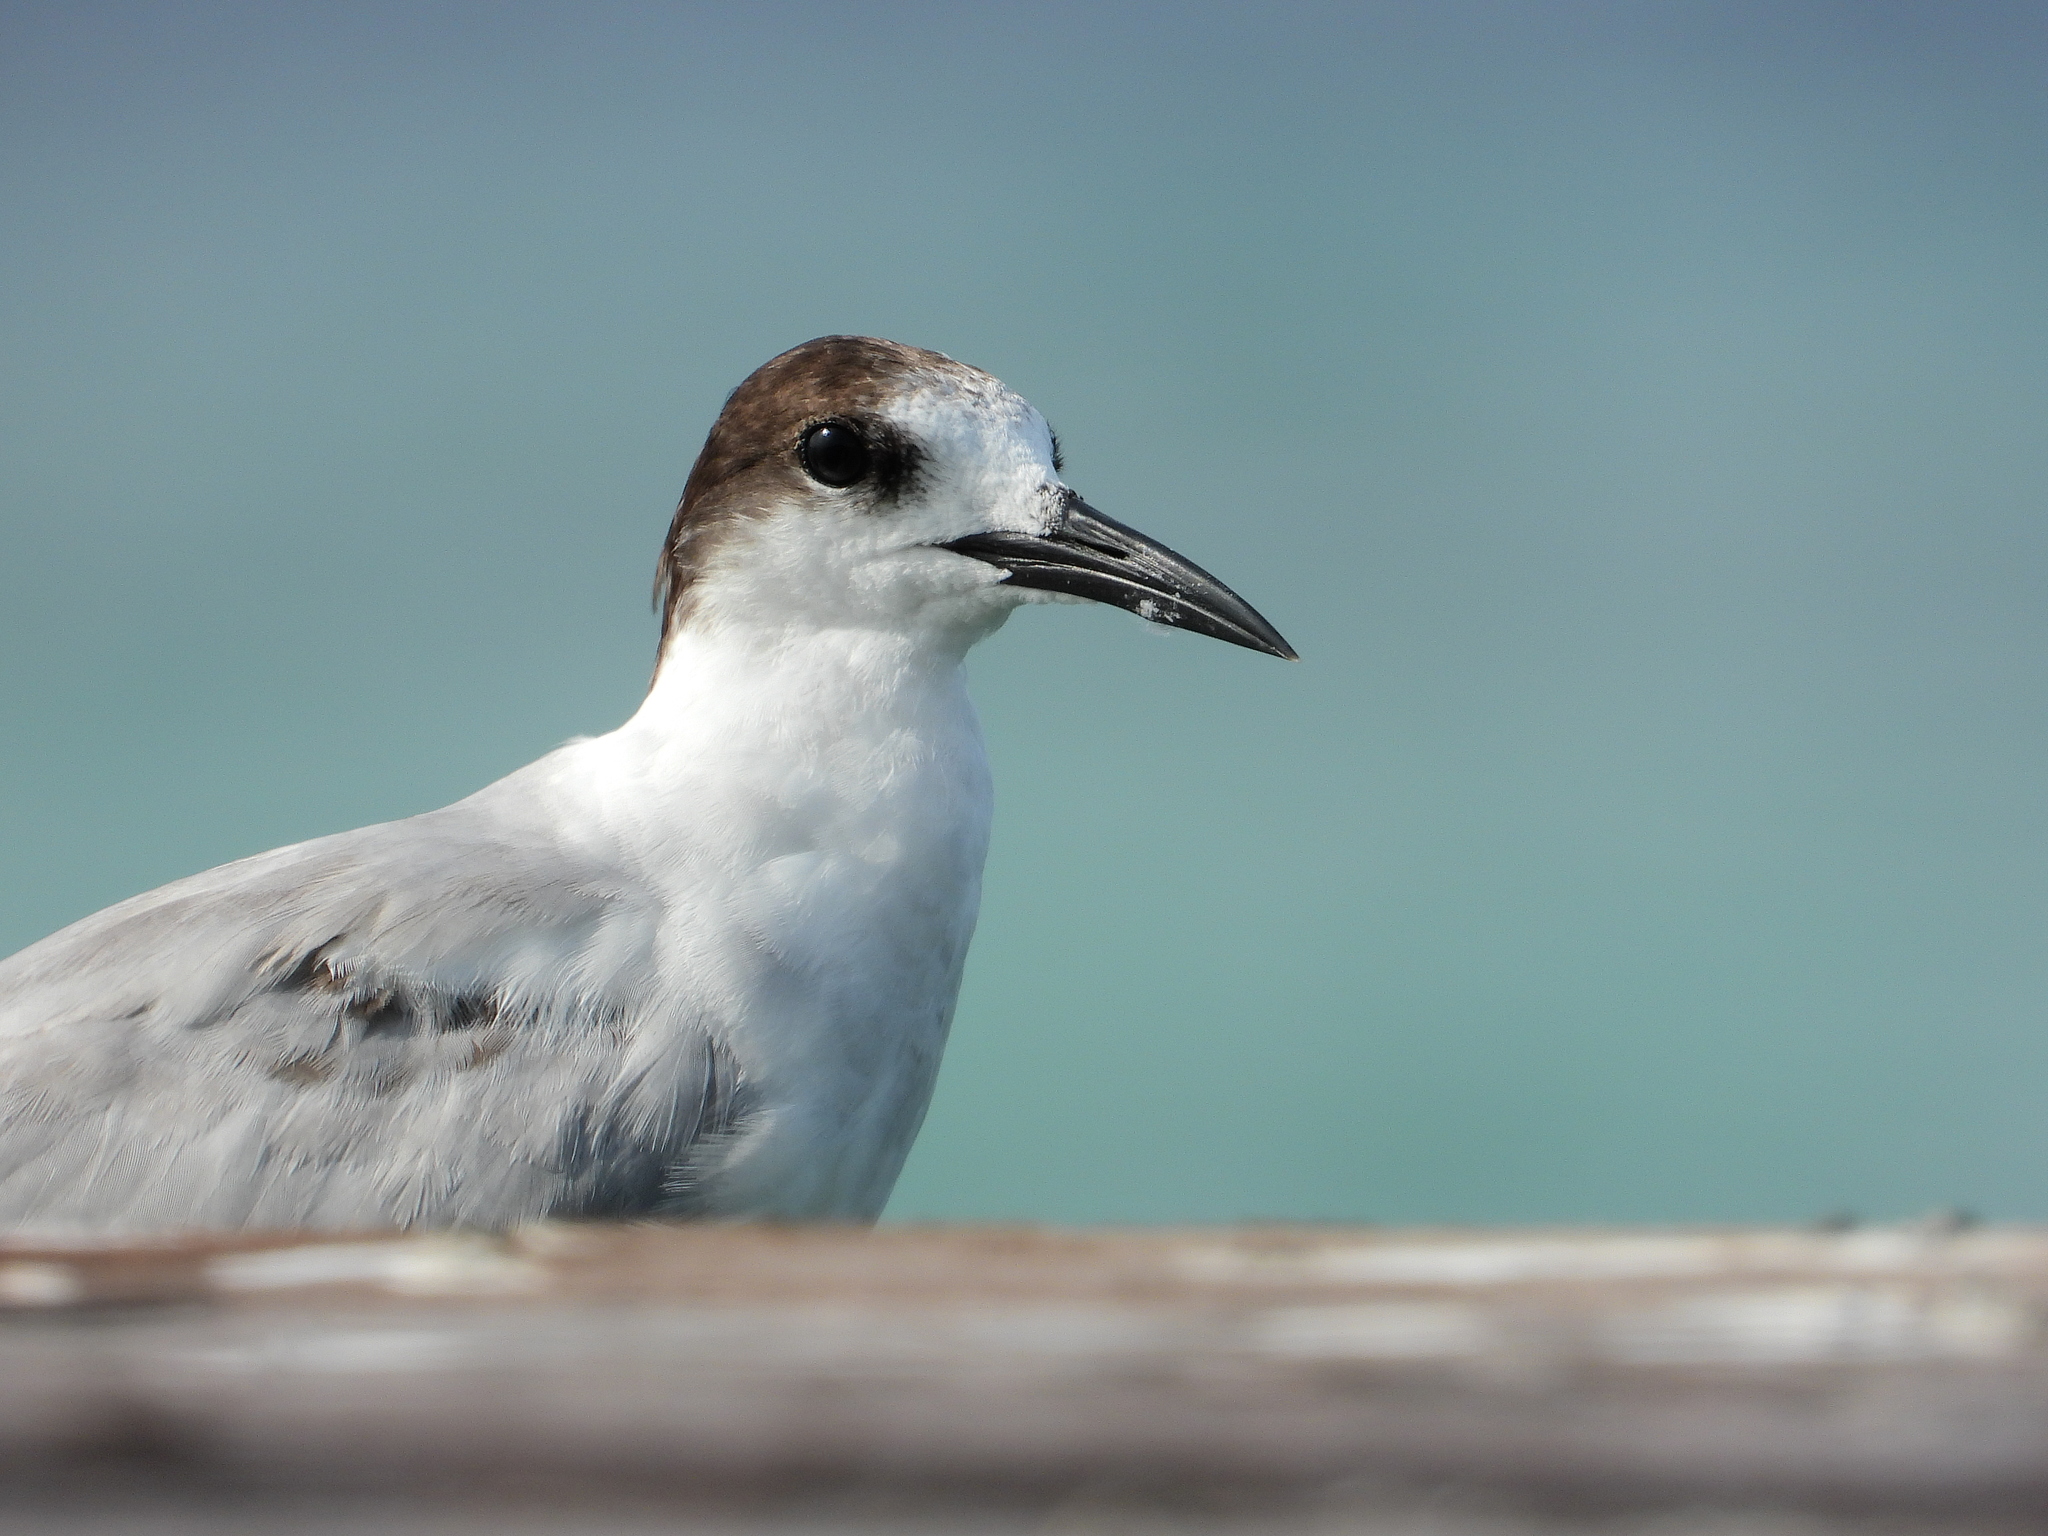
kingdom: Animalia
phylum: Chordata
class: Aves
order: Charadriiformes
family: Laridae
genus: Sterna
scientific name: Sterna hirundo
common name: Common tern
